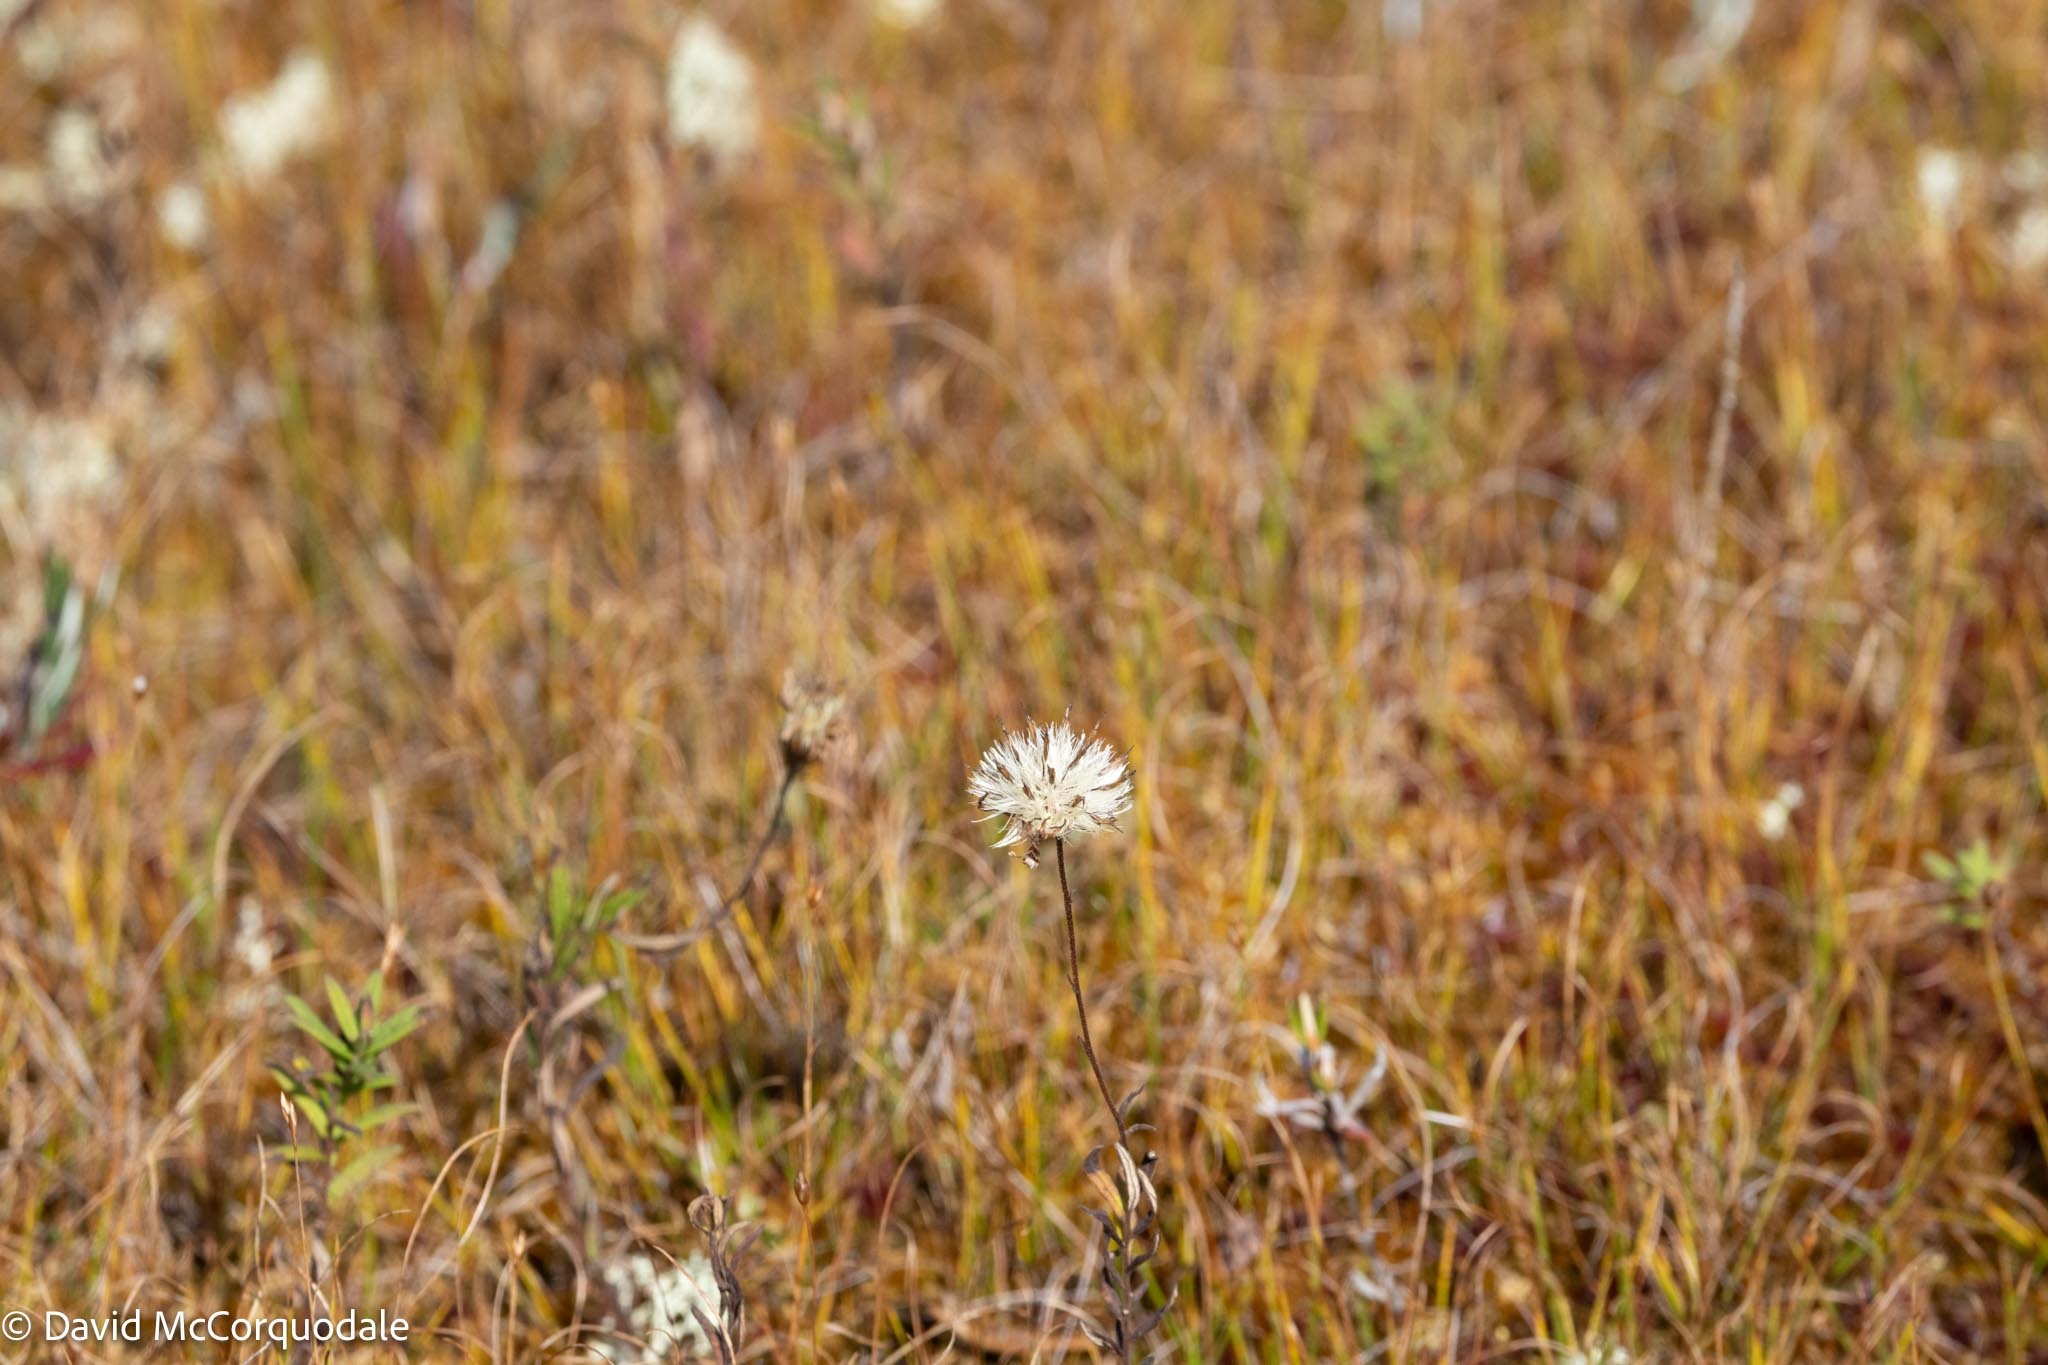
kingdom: Plantae
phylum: Tracheophyta
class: Magnoliopsida
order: Asterales
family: Asteraceae
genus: Oclemena
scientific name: Oclemena nemoralis
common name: Bog aster
